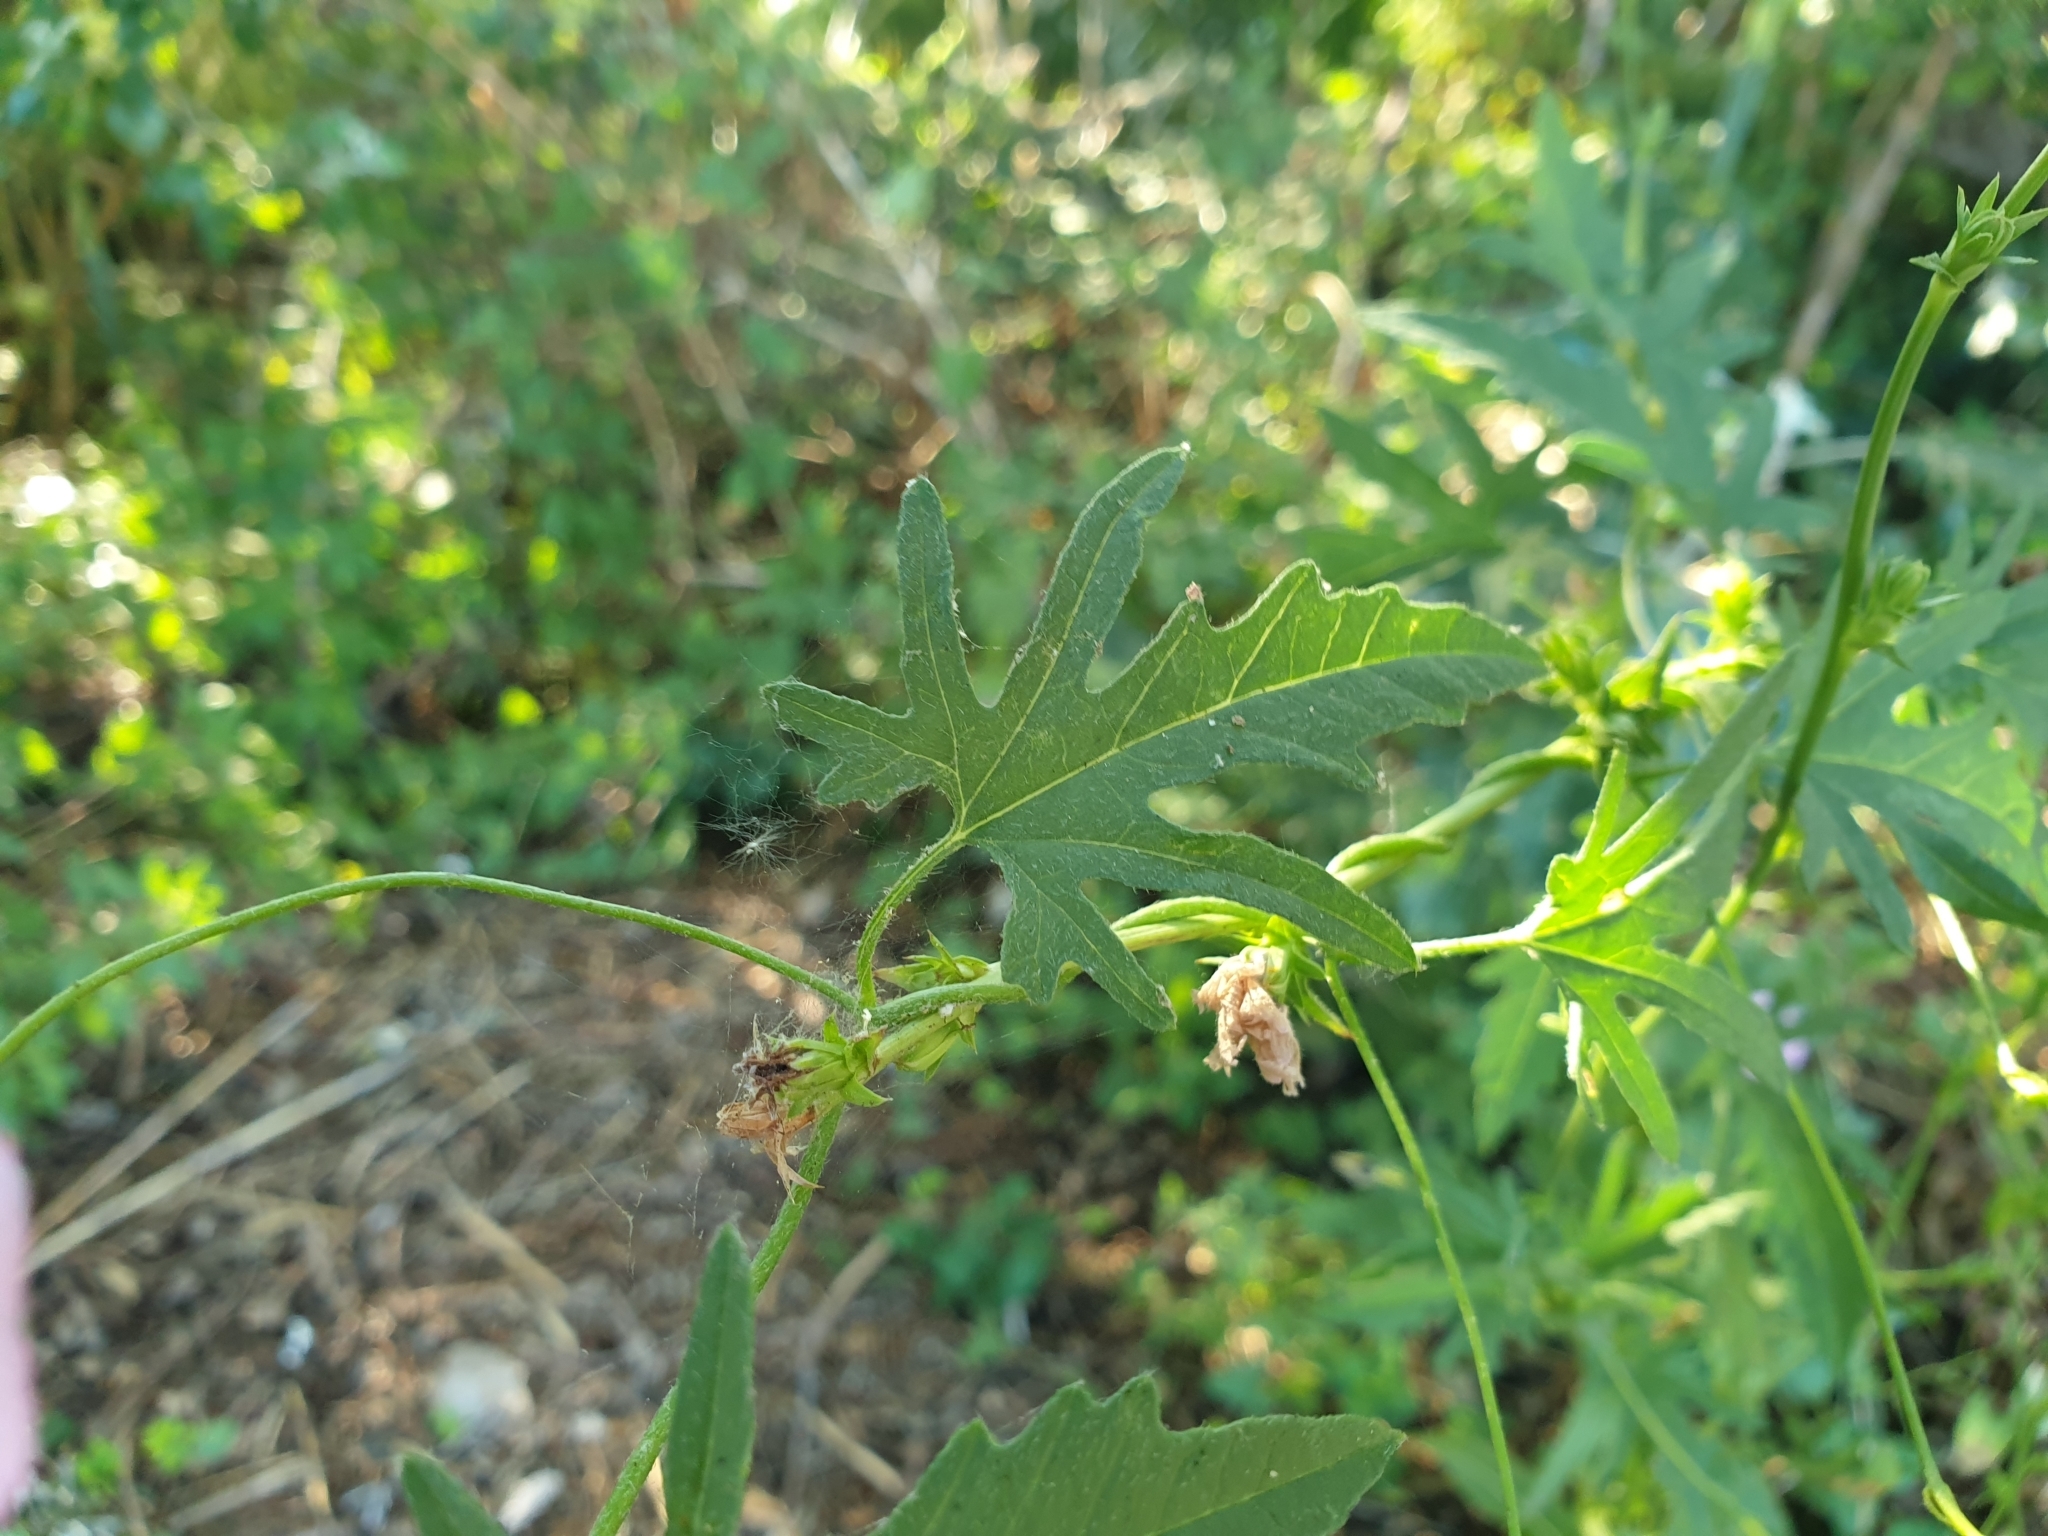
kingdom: Plantae
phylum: Tracheophyta
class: Magnoliopsida
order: Solanales
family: Convolvulaceae
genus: Convolvulus
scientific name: Convolvulus althaeoides
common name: Mallow bindweed
